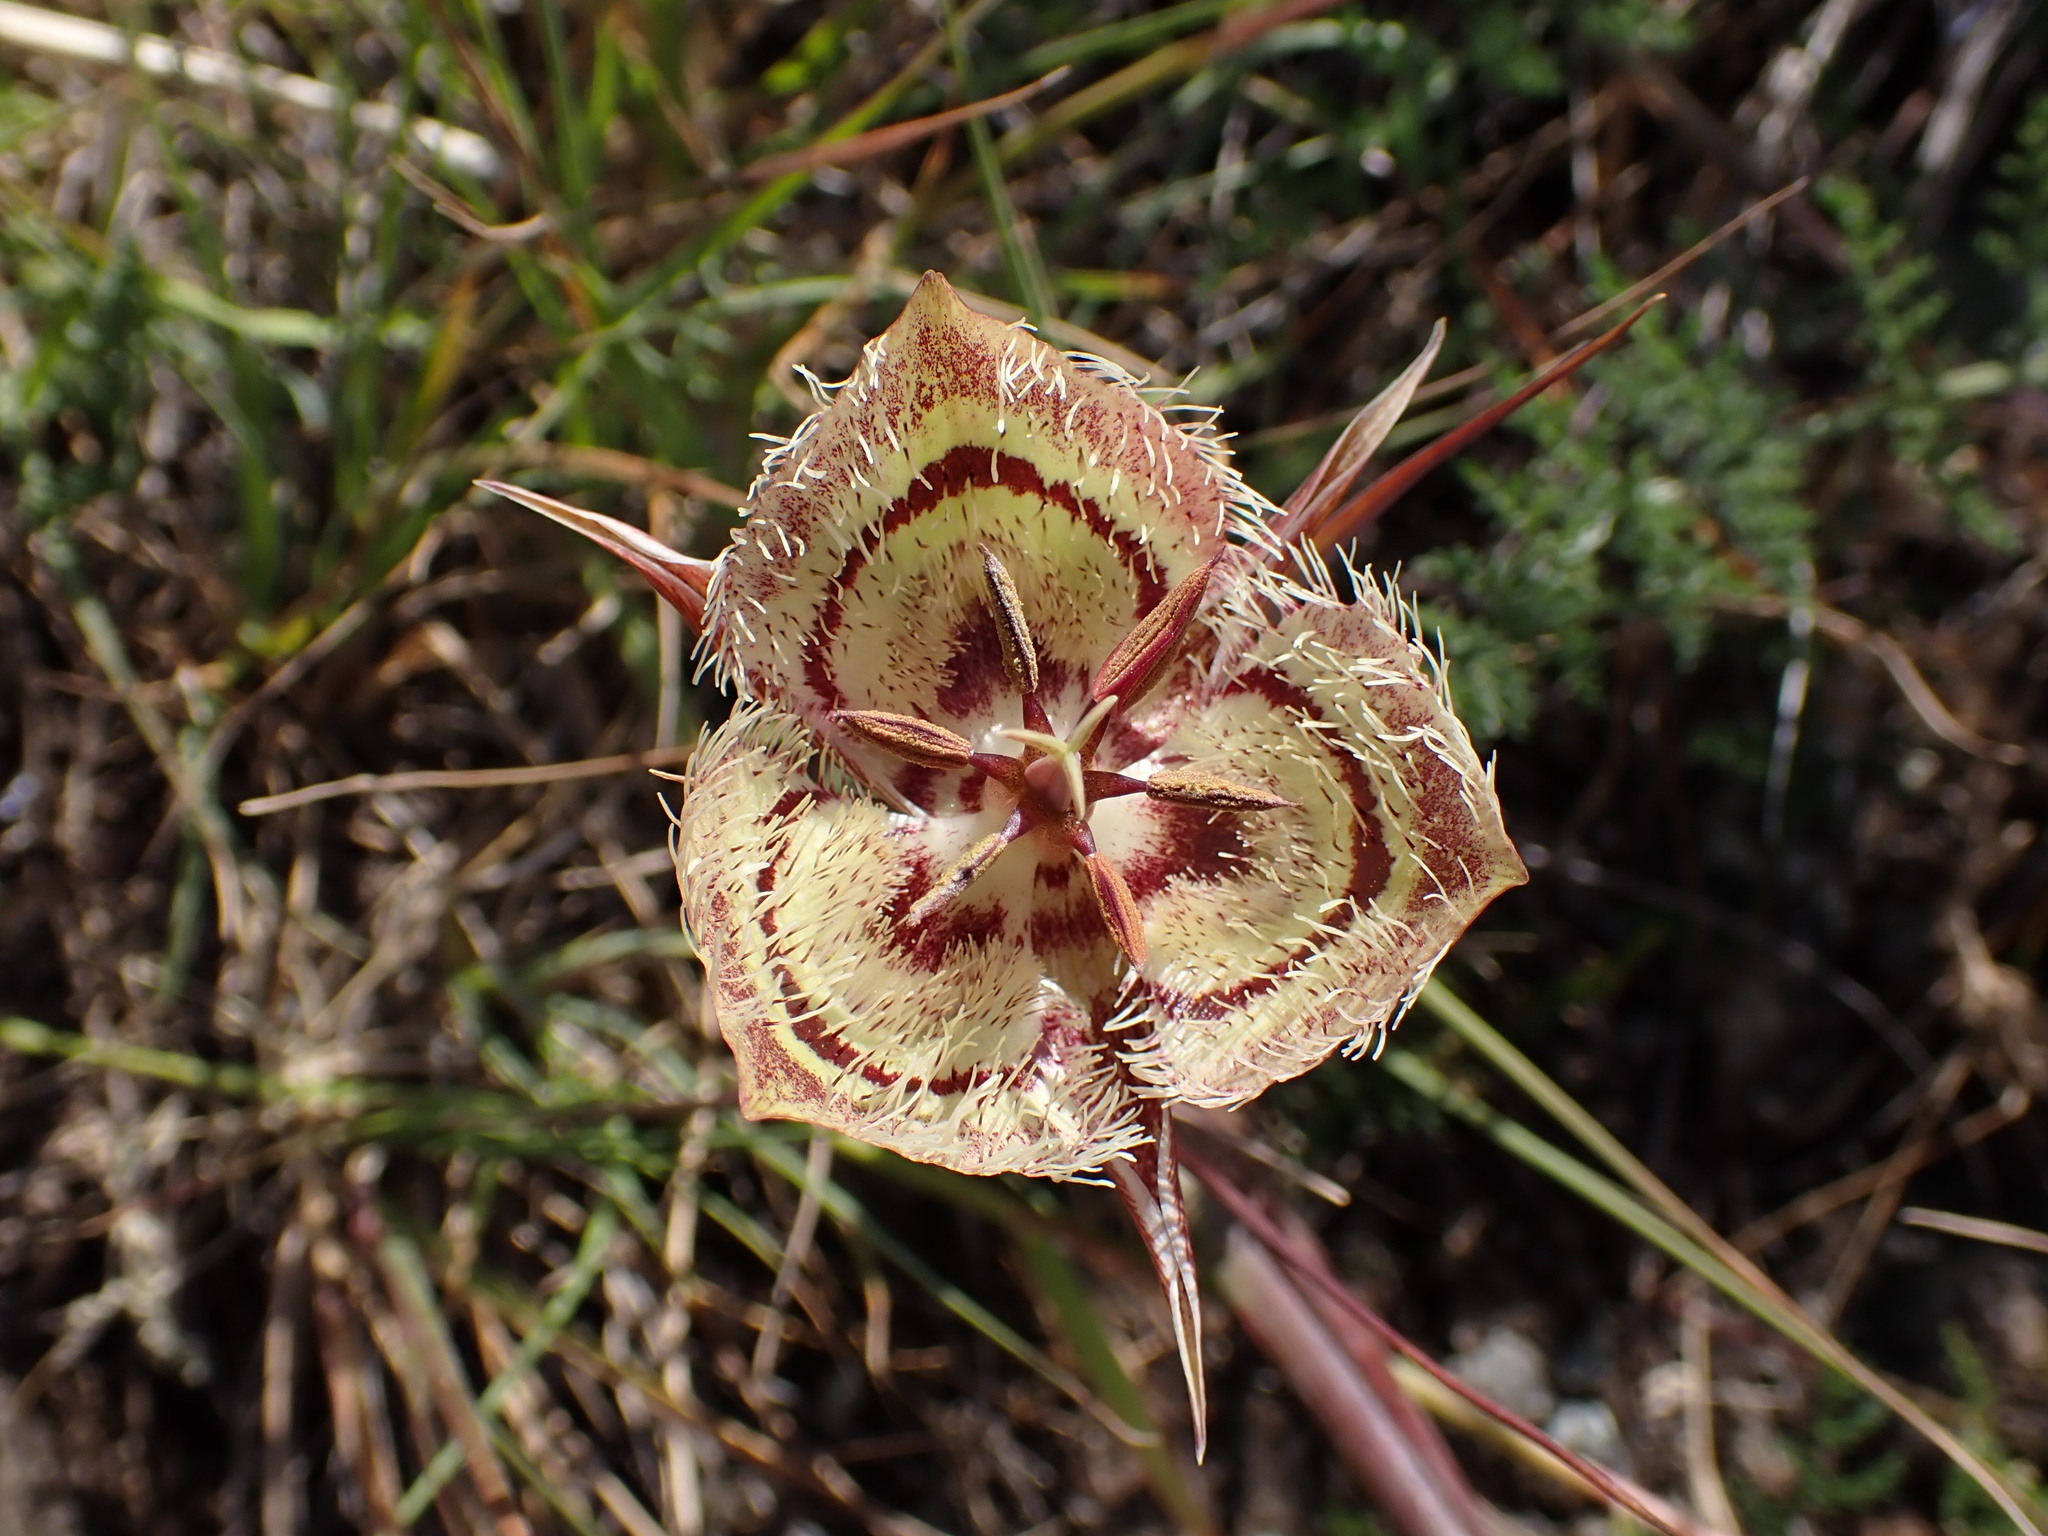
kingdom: Plantae
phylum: Tracheophyta
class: Liliopsida
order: Liliales
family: Liliaceae
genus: Calochortus
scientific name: Calochortus tiburonensis
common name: Tiburon mariposa-lily
